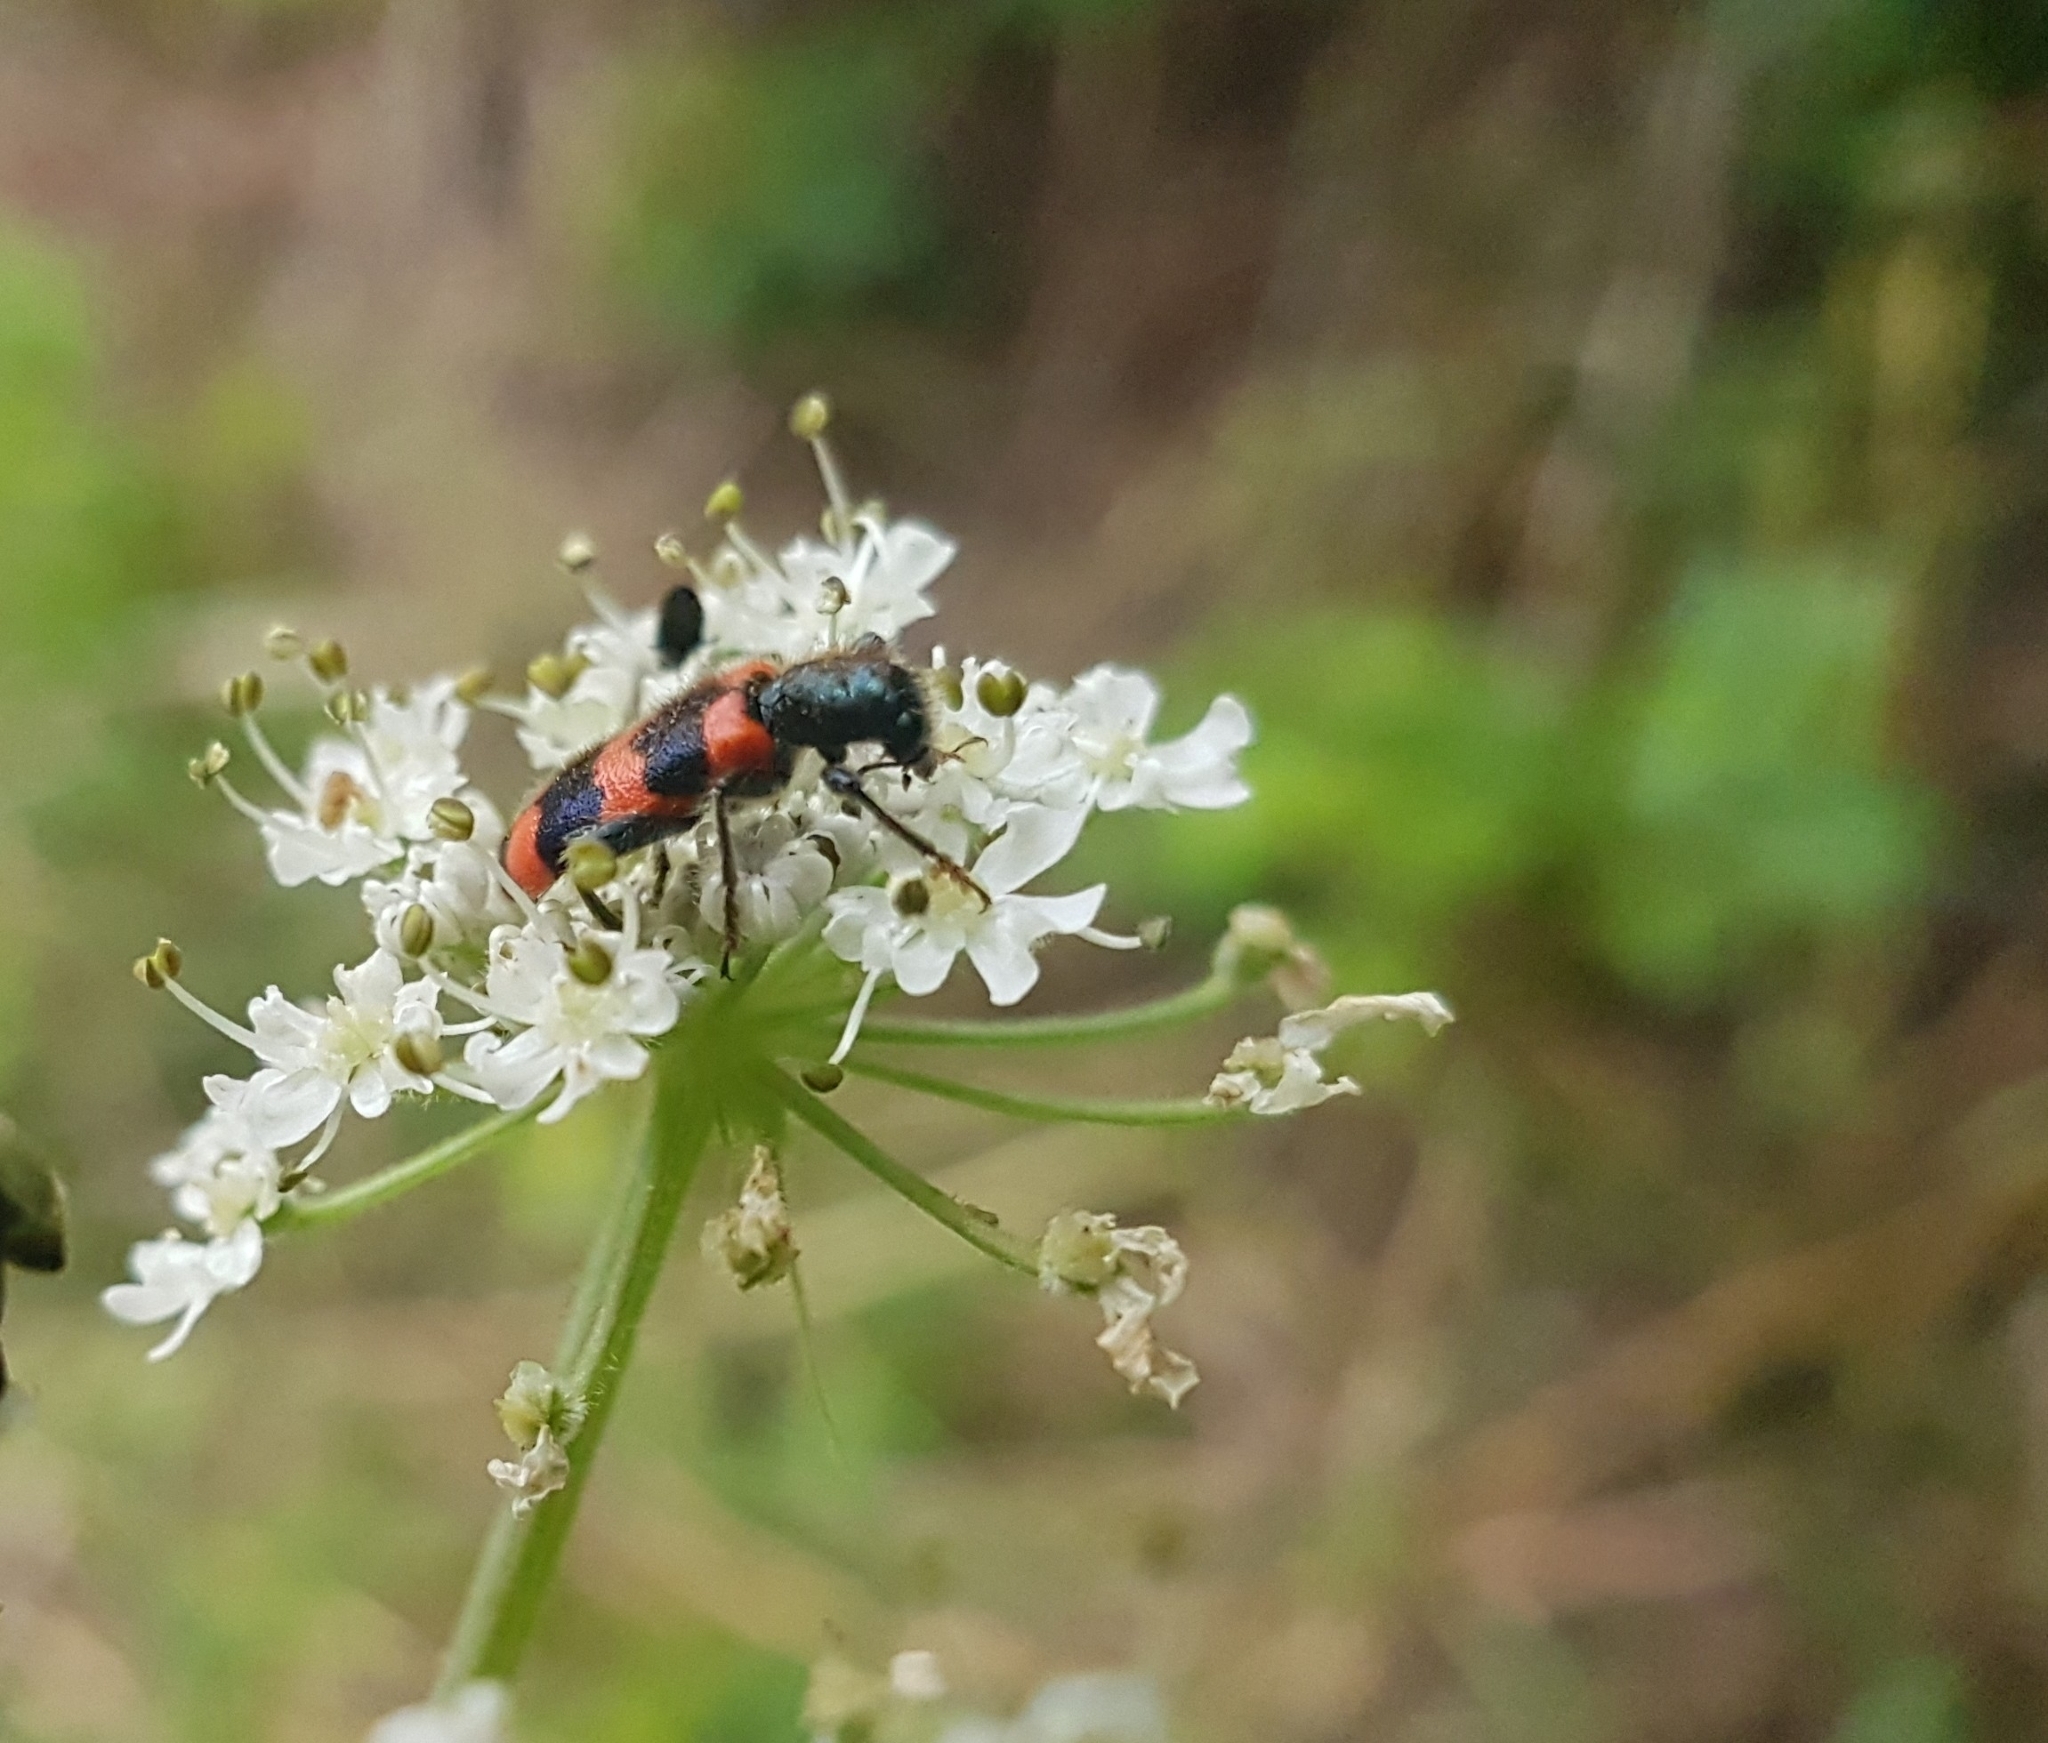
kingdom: Animalia
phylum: Arthropoda
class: Insecta
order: Coleoptera
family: Cleridae
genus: Trichodes
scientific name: Trichodes apiarius
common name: Bee-eating beetle
